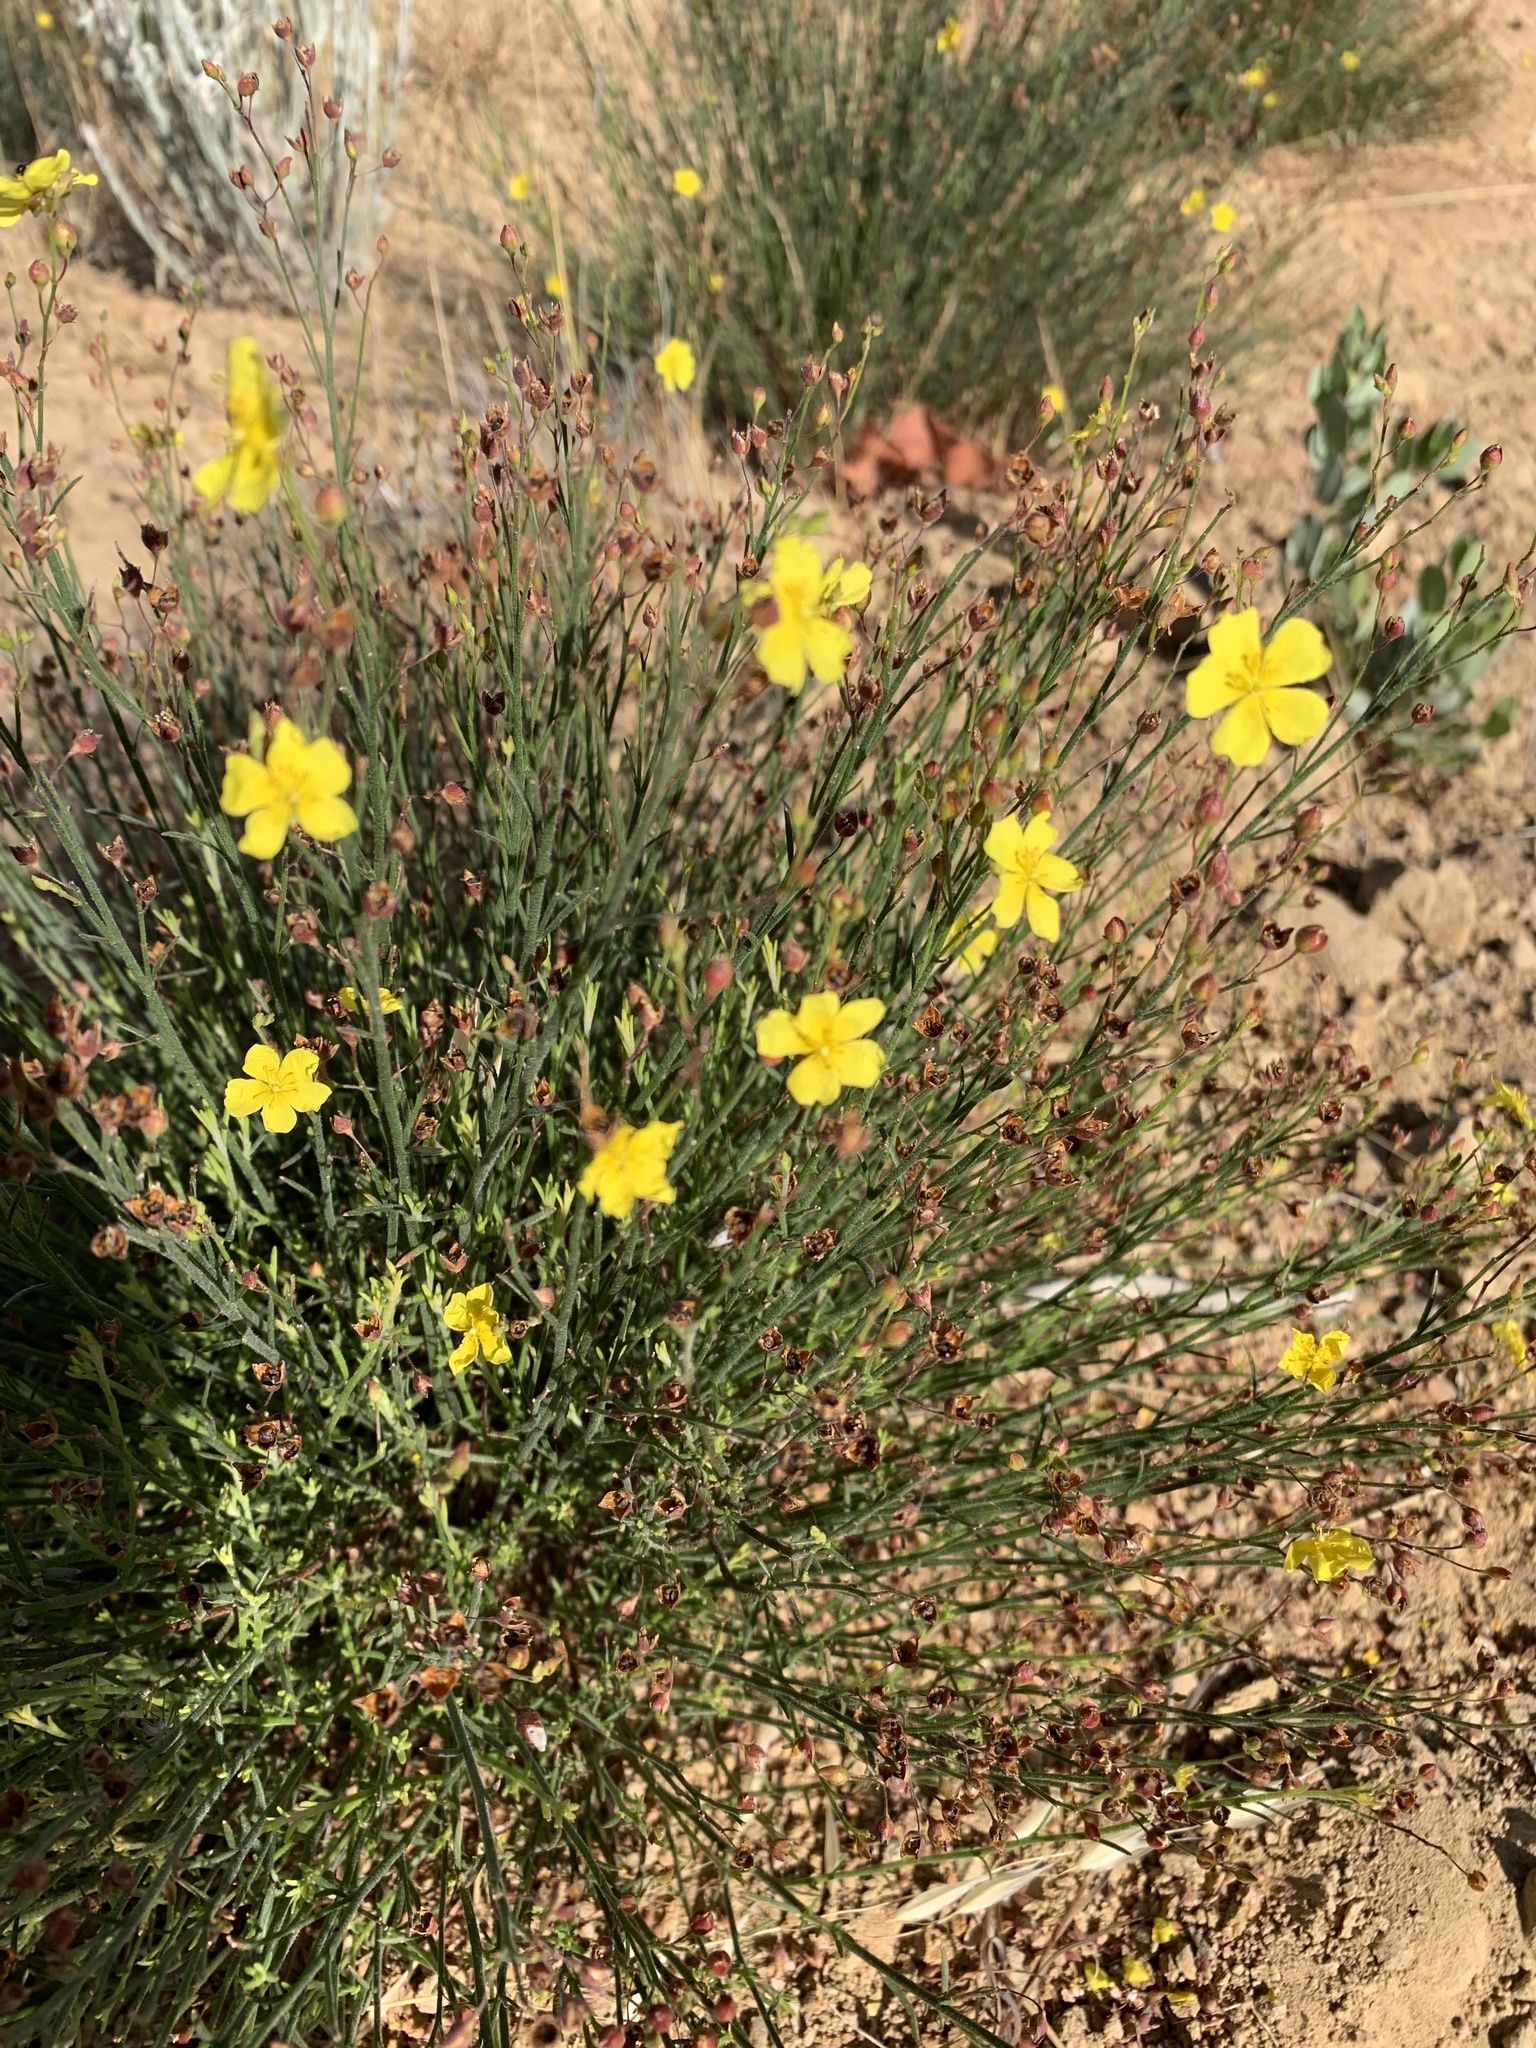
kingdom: Plantae
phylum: Tracheophyta
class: Magnoliopsida
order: Malvales
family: Cistaceae
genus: Crocanthemum
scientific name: Crocanthemum scoparium
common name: Broom-rose
